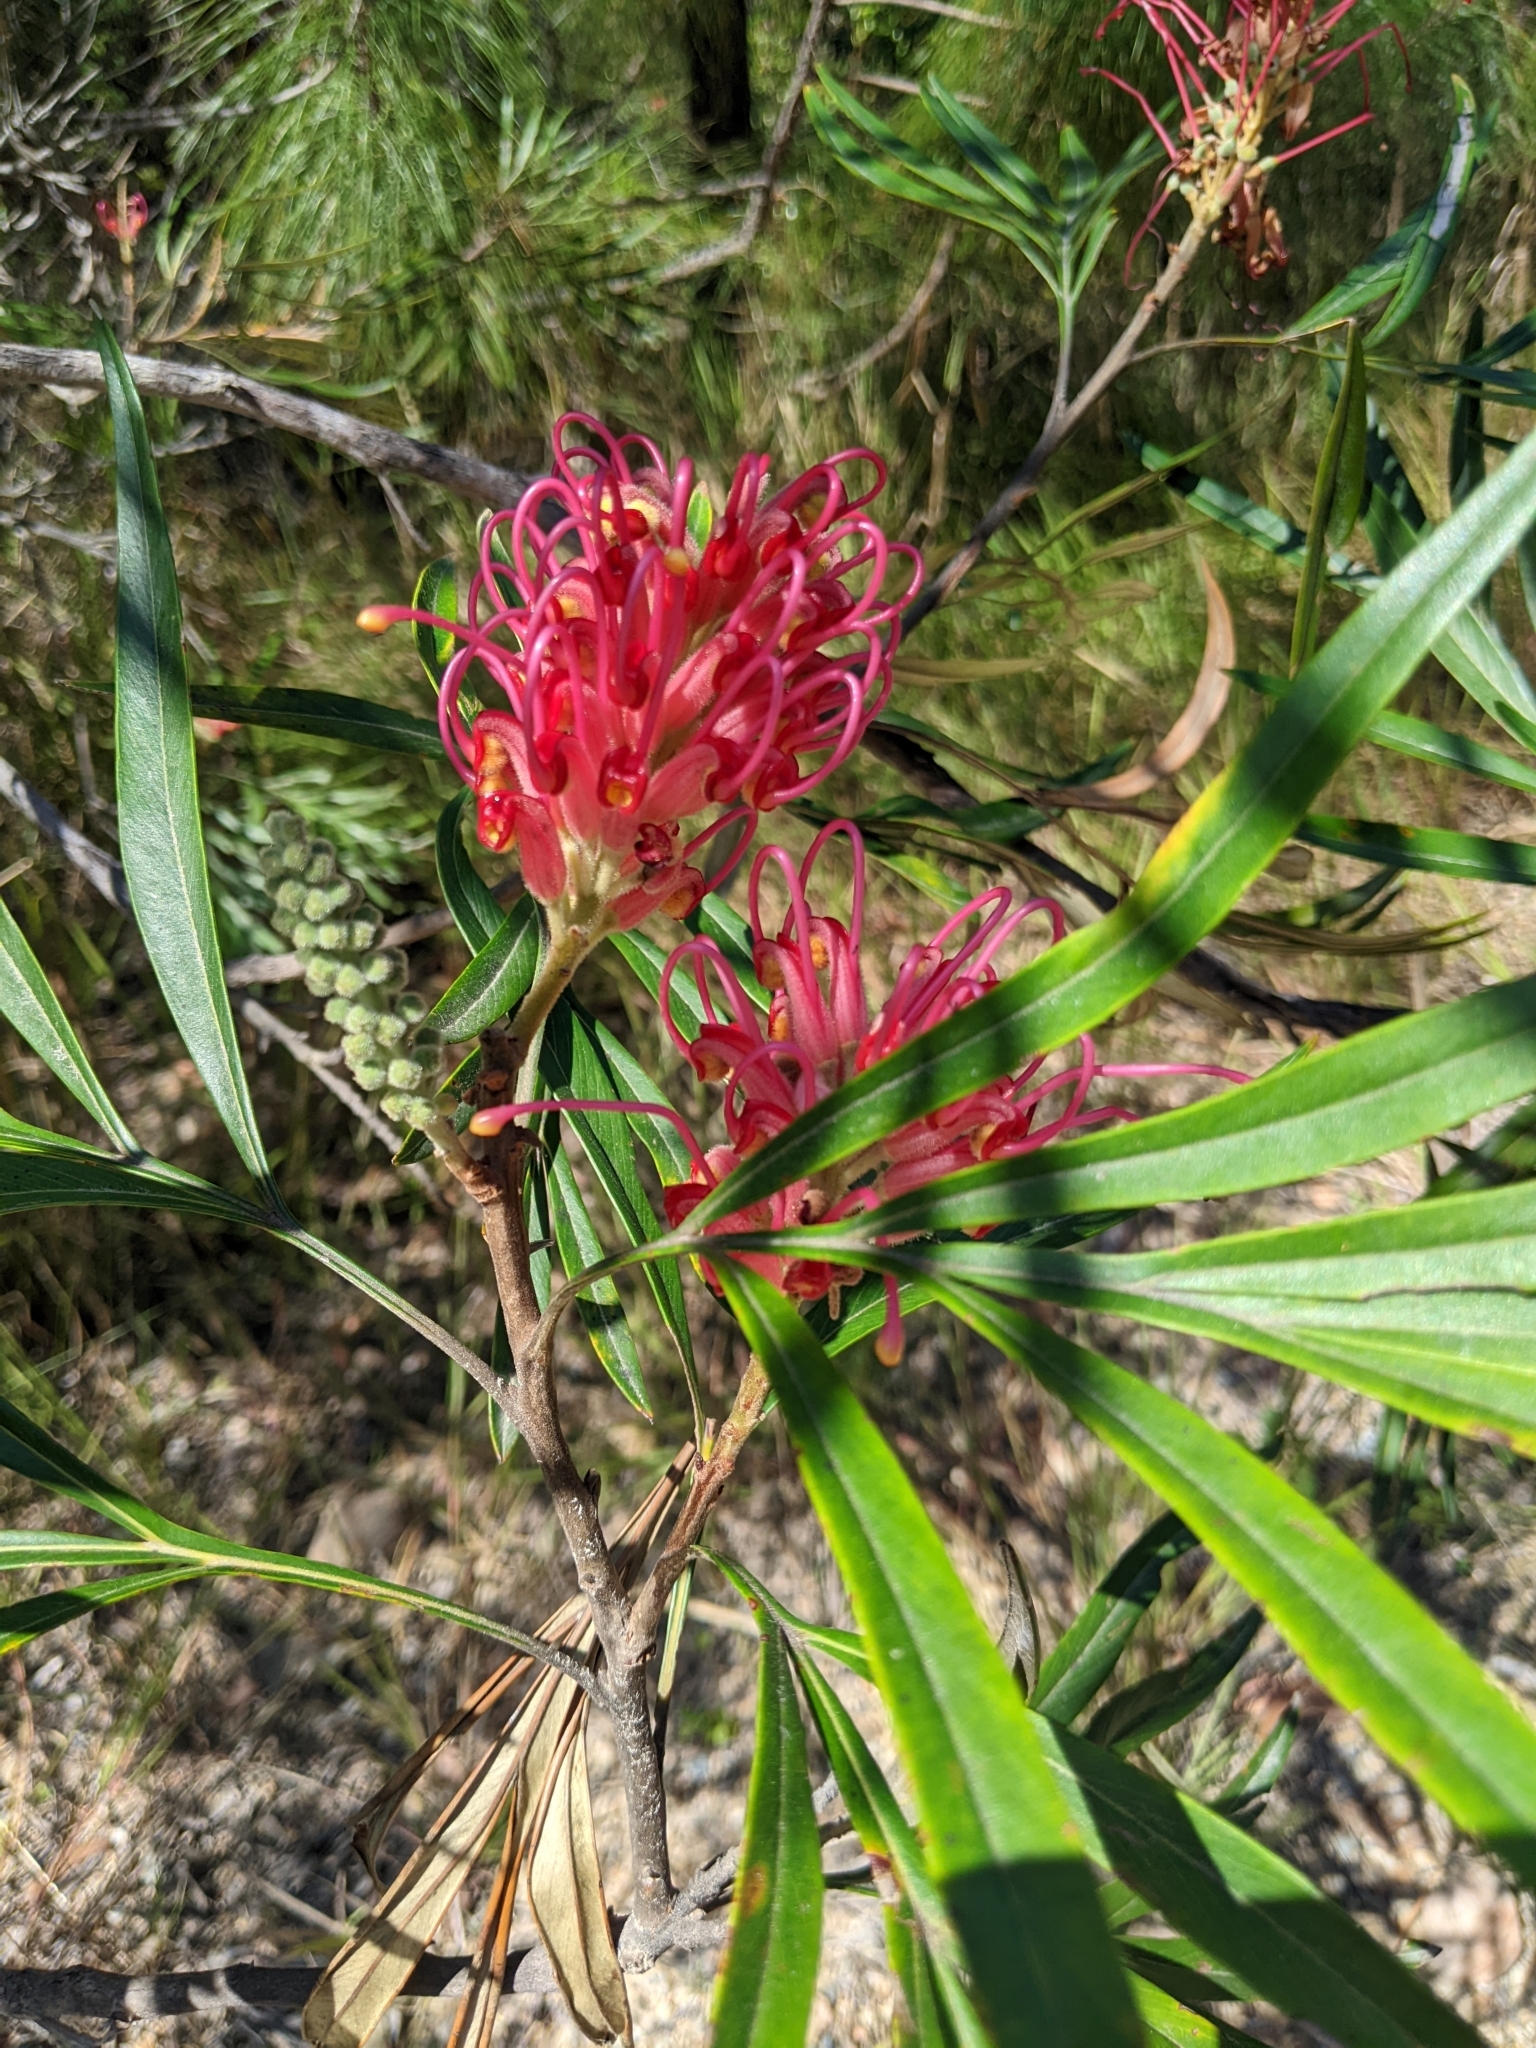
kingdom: Plantae
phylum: Tracheophyta
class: Magnoliopsida
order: Proteales
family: Proteaceae
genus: Grevillea
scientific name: Grevillea banksii
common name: Kahili flower
